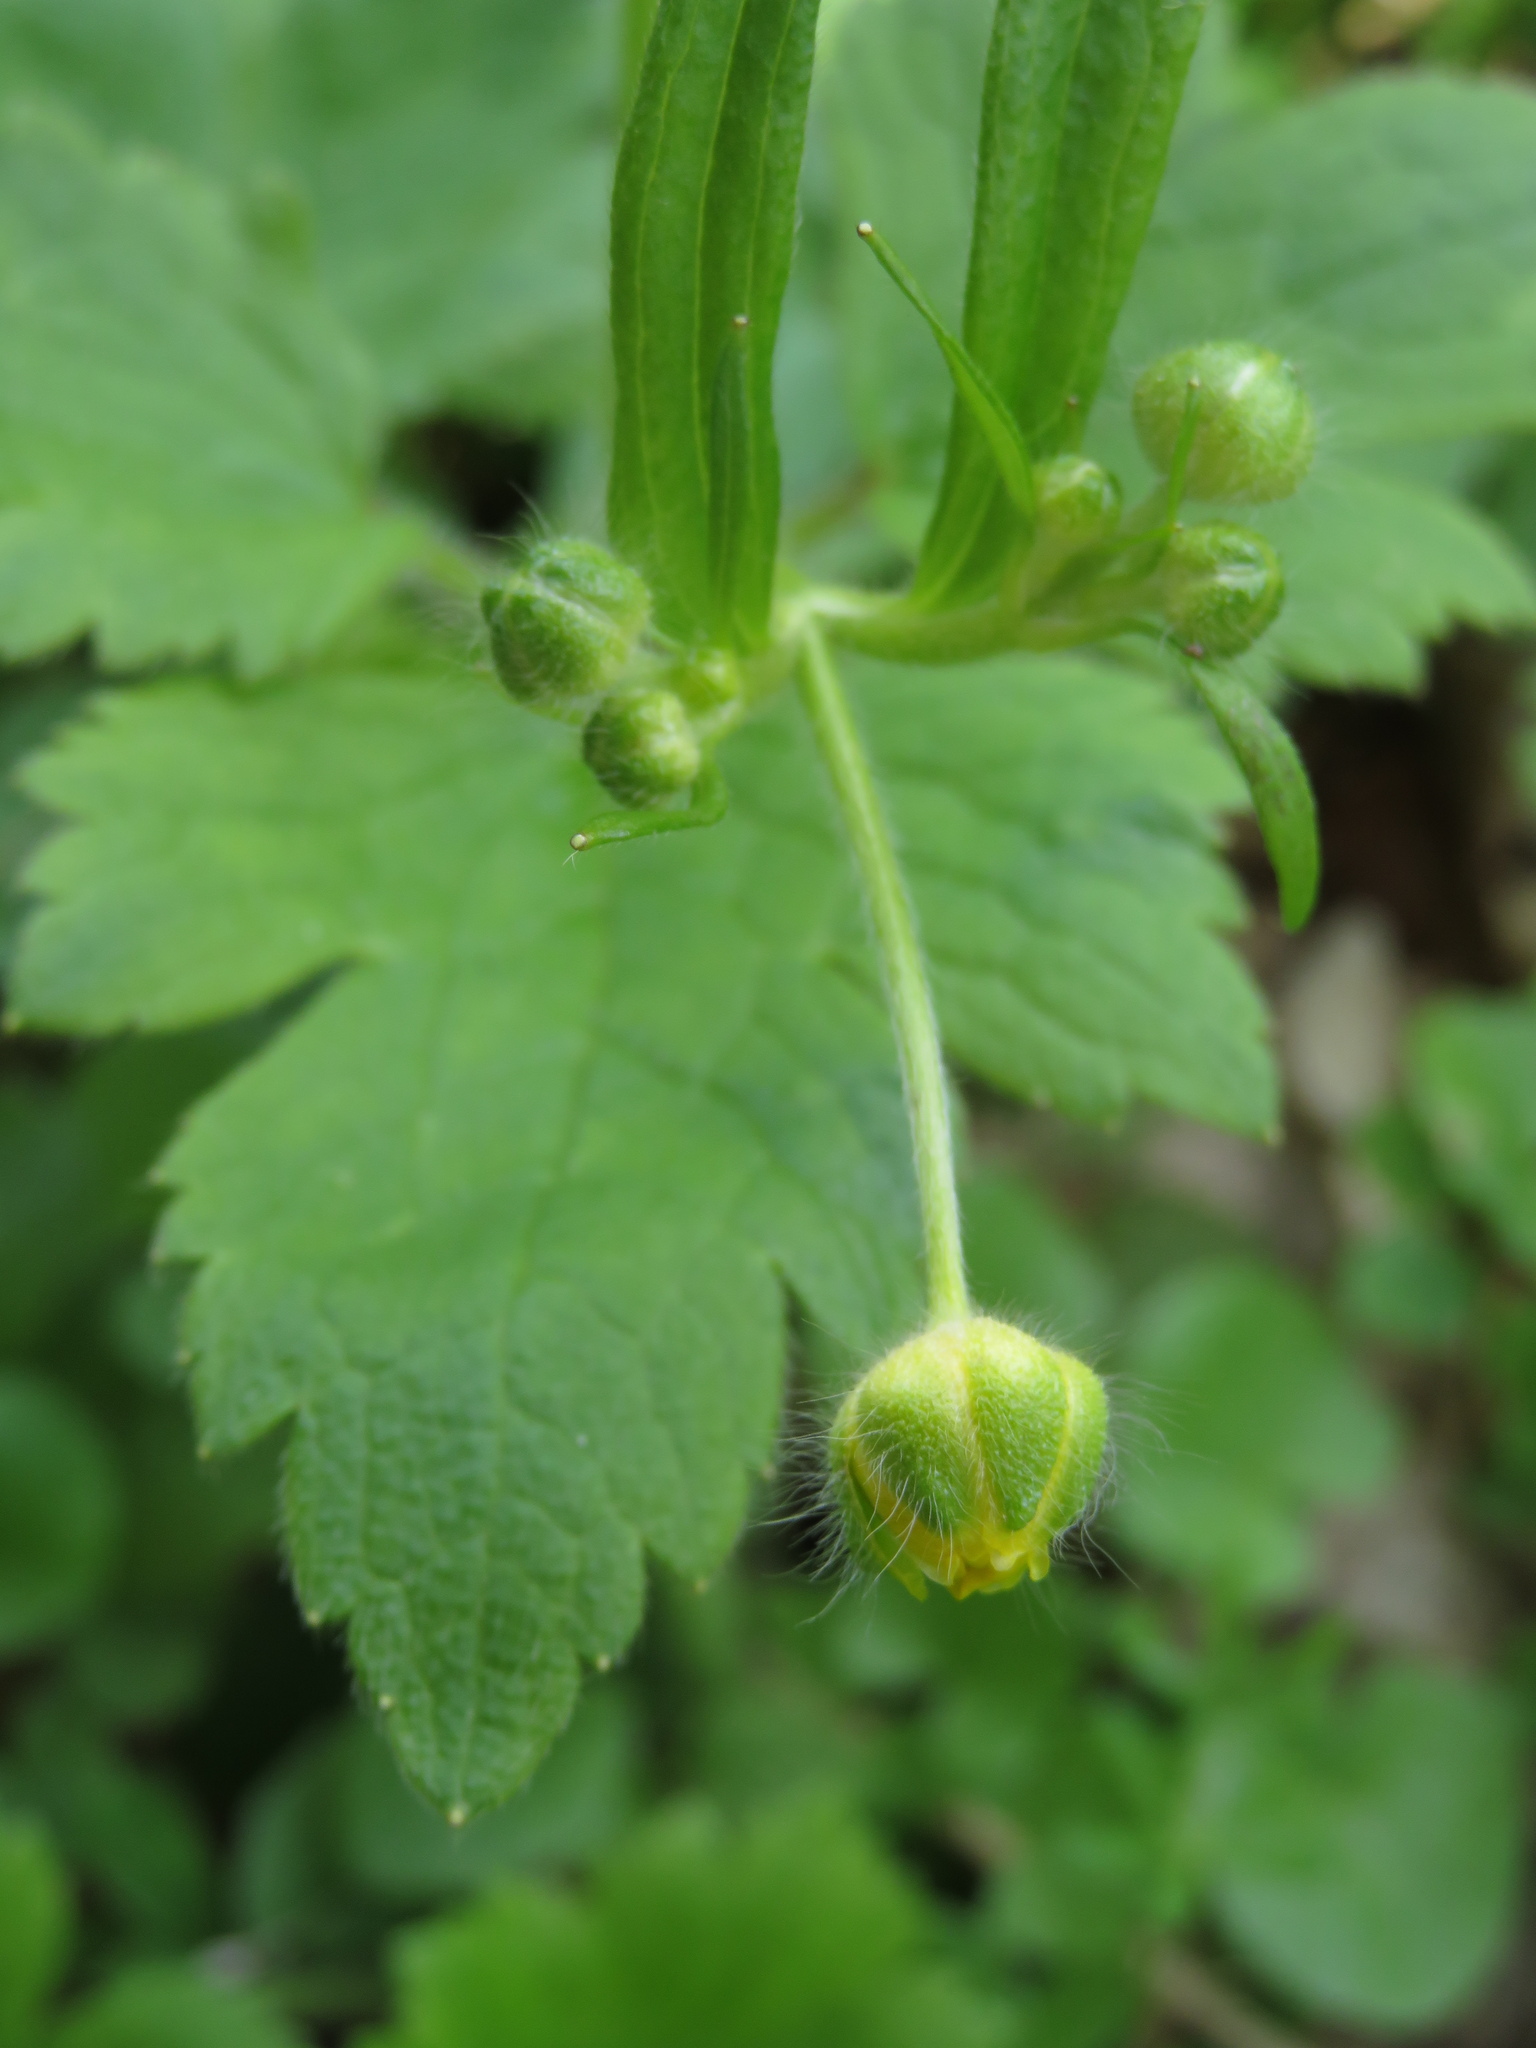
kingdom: Plantae
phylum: Tracheophyta
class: Magnoliopsida
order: Ranunculales
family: Ranunculaceae
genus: Ranunculus
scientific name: Ranunculus lanuginosus
